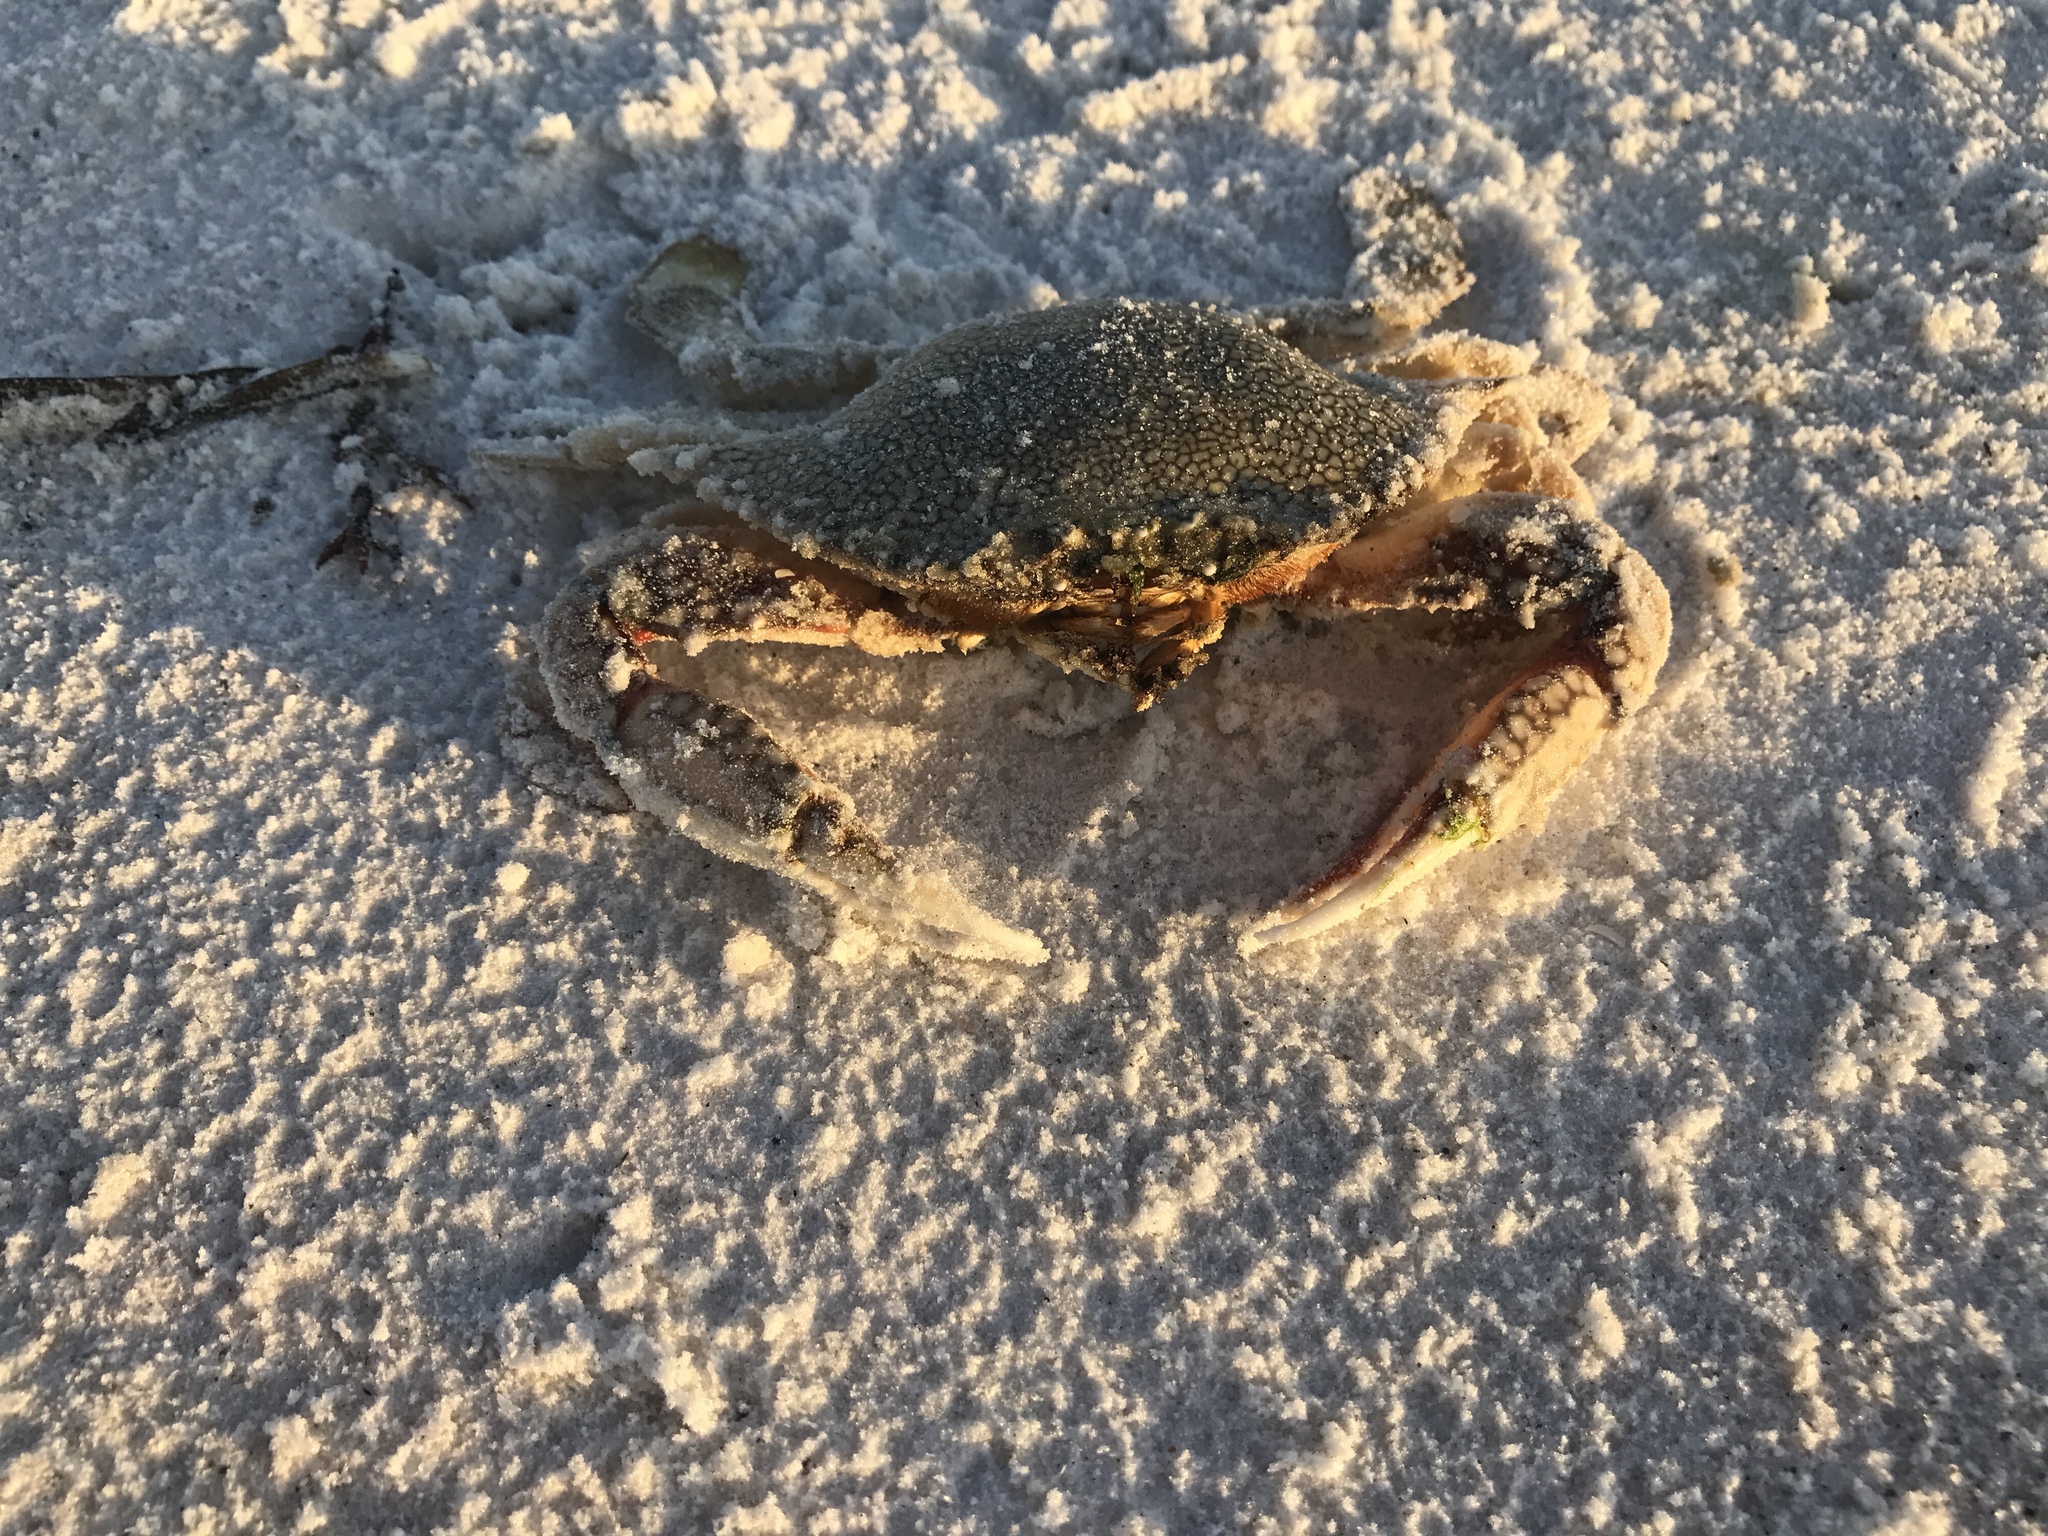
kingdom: Animalia
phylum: Arthropoda
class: Malacostraca
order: Decapoda
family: Portunidae
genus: Arenaeus
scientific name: Arenaeus cribrarius
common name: Speckled crab
